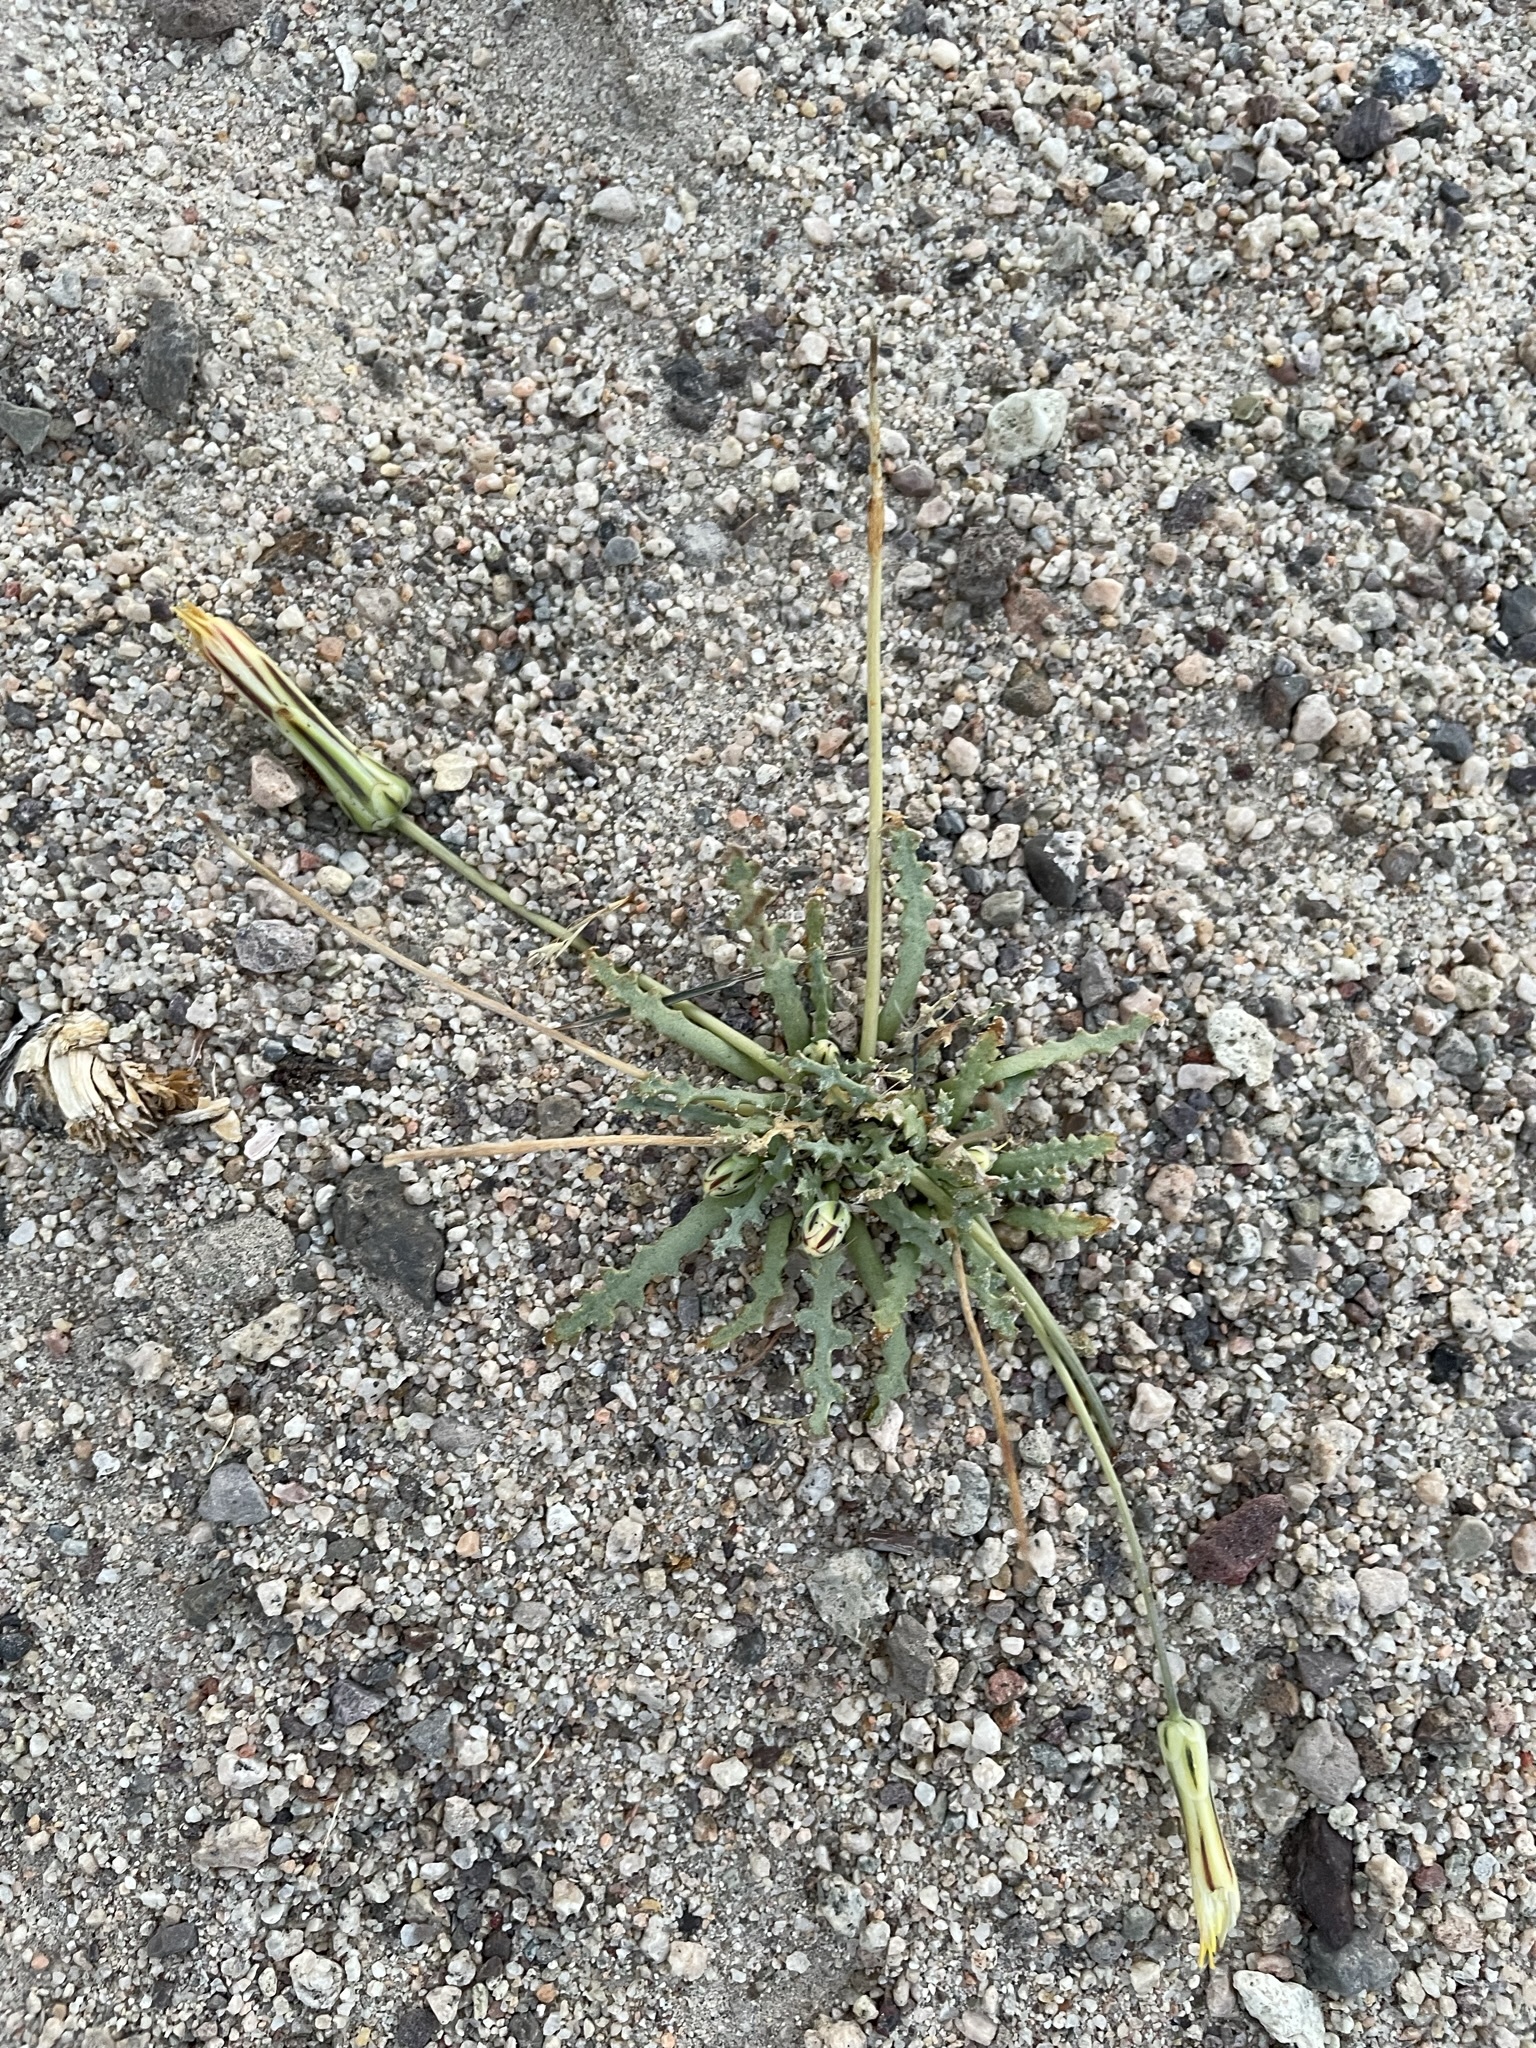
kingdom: Plantae
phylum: Tracheophyta
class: Magnoliopsida
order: Asterales
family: Asteraceae
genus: Anisocoma
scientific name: Anisocoma acaulis
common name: Scalebud
